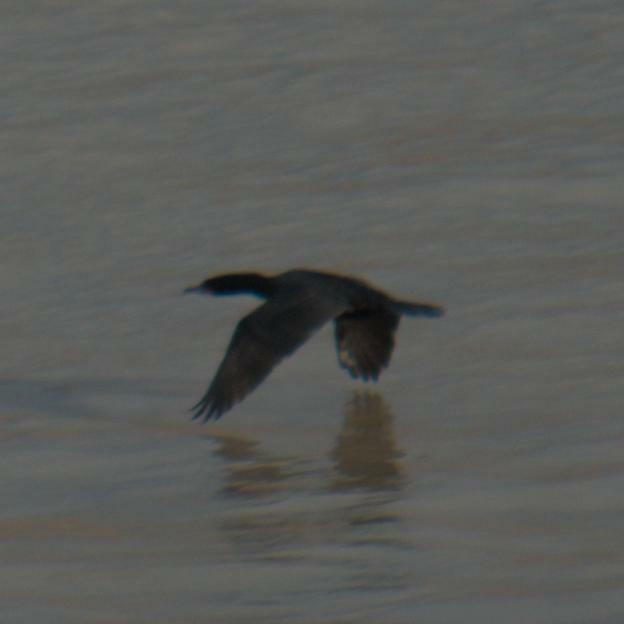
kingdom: Animalia
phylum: Chordata
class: Aves
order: Suliformes
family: Phalacrocoracidae
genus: Phalacrocorax
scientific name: Phalacrocorax auritus
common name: Double-crested cormorant
